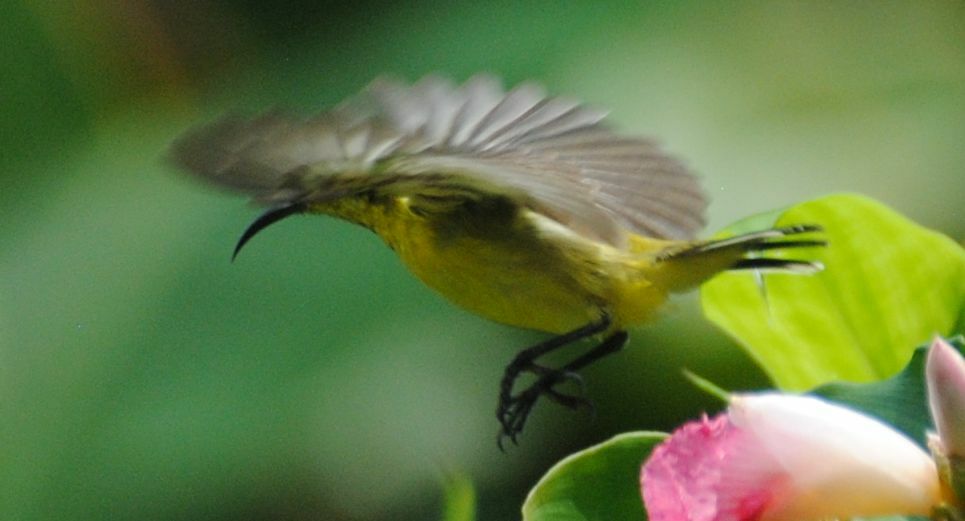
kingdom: Animalia
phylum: Chordata
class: Aves
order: Passeriformes
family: Nectariniidae
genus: Cinnyris
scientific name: Cinnyris
